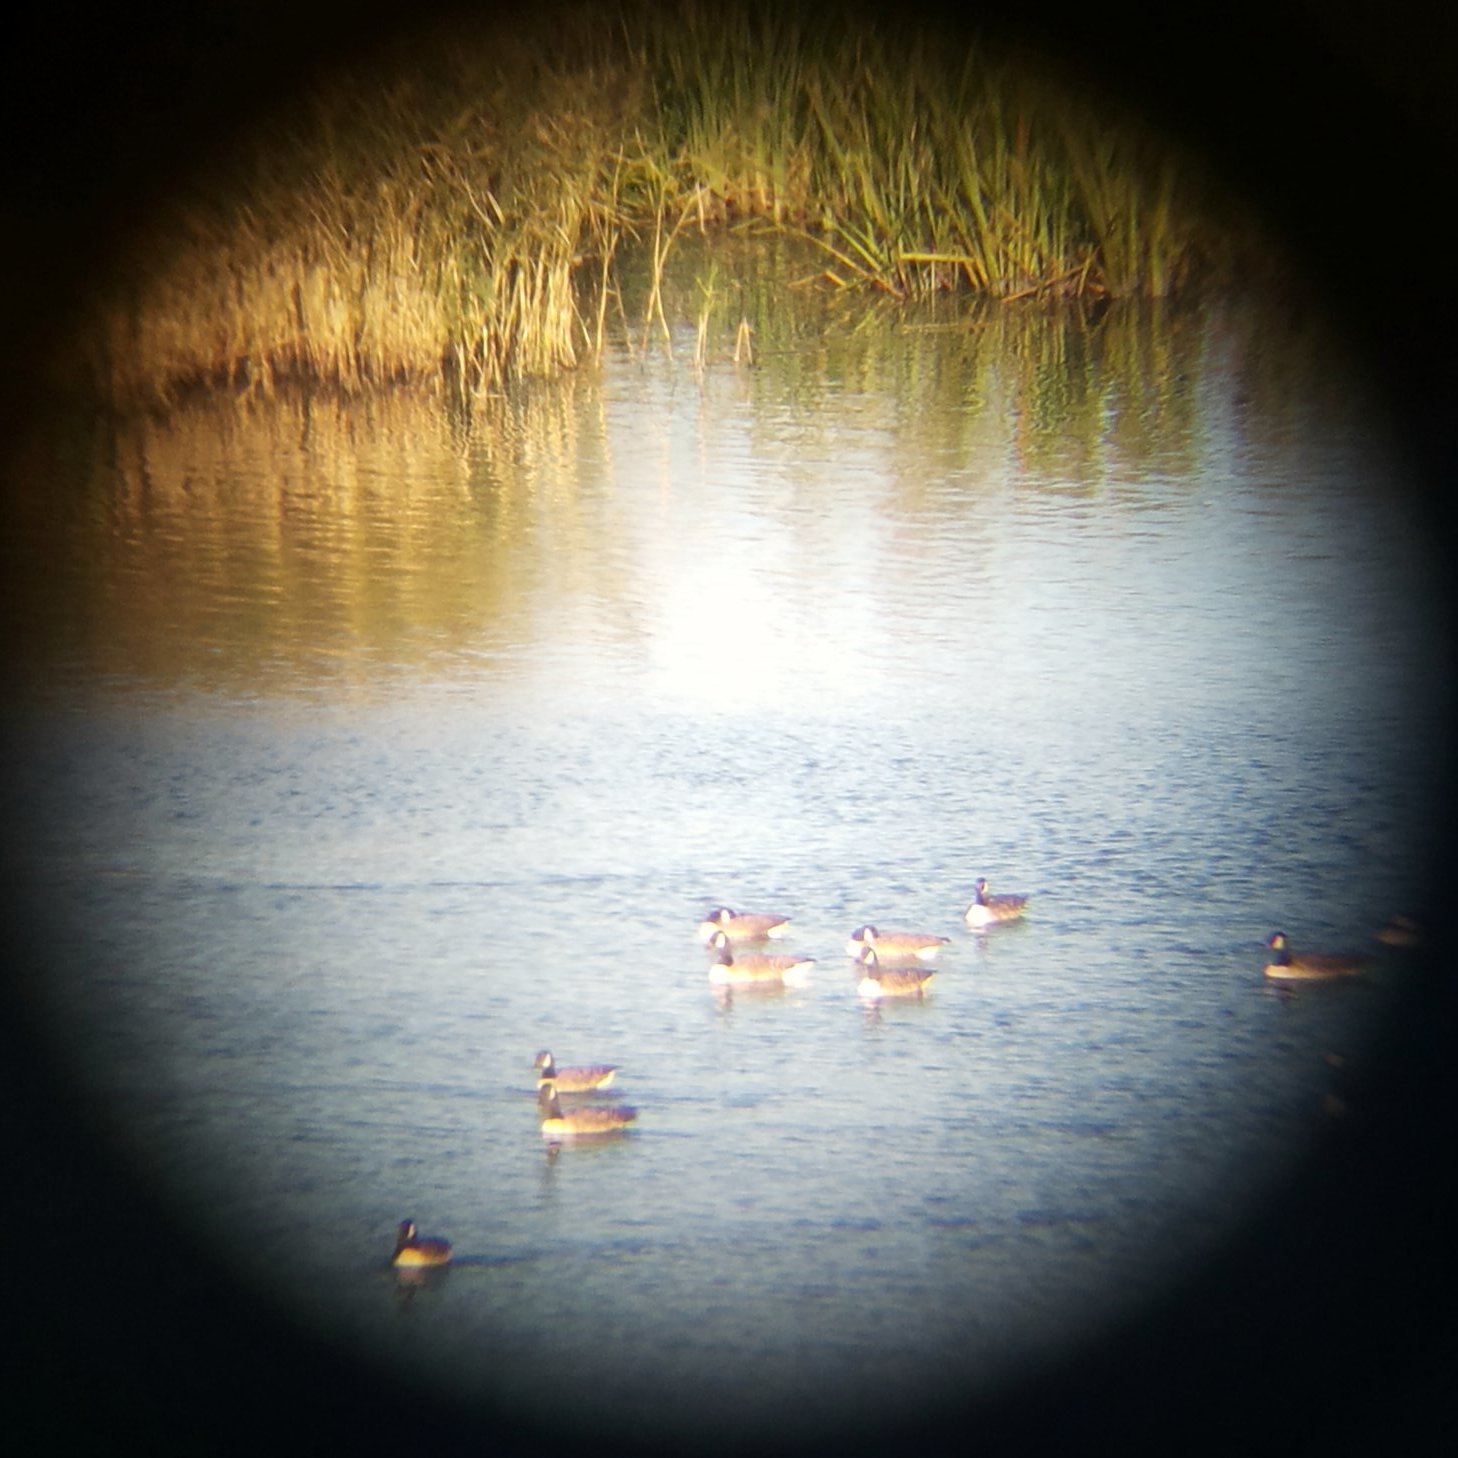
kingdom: Animalia
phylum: Chordata
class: Aves
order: Anseriformes
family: Anatidae
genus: Branta
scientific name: Branta canadensis
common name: Canada goose
